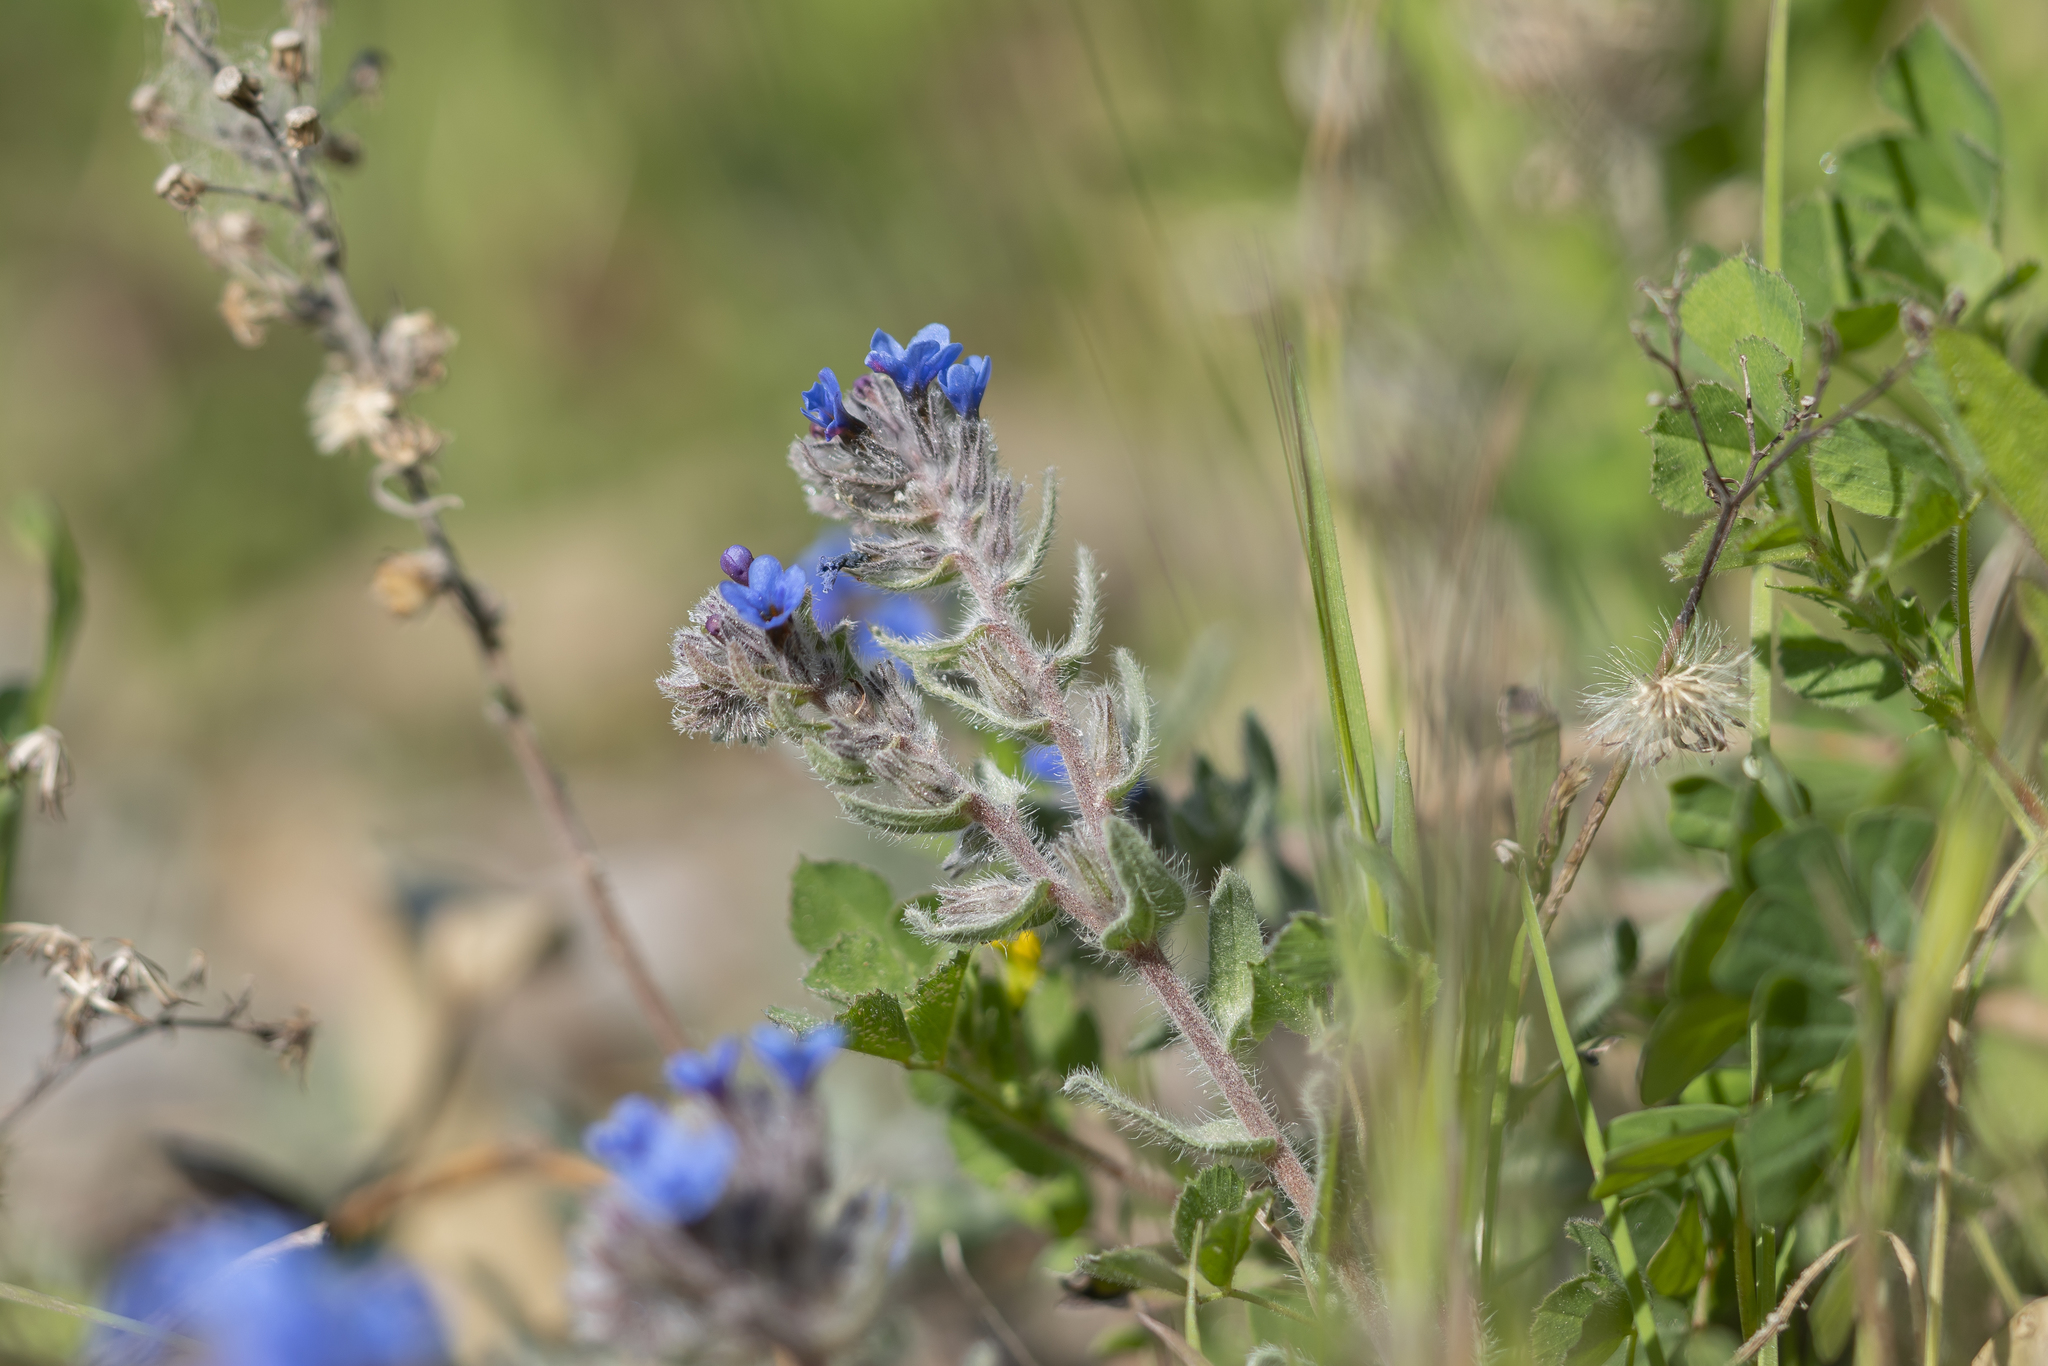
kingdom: Plantae
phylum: Tracheophyta
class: Magnoliopsida
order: Boraginales
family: Boraginaceae
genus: Alkanna
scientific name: Alkanna tinctoria
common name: Dyer's-alkanet
